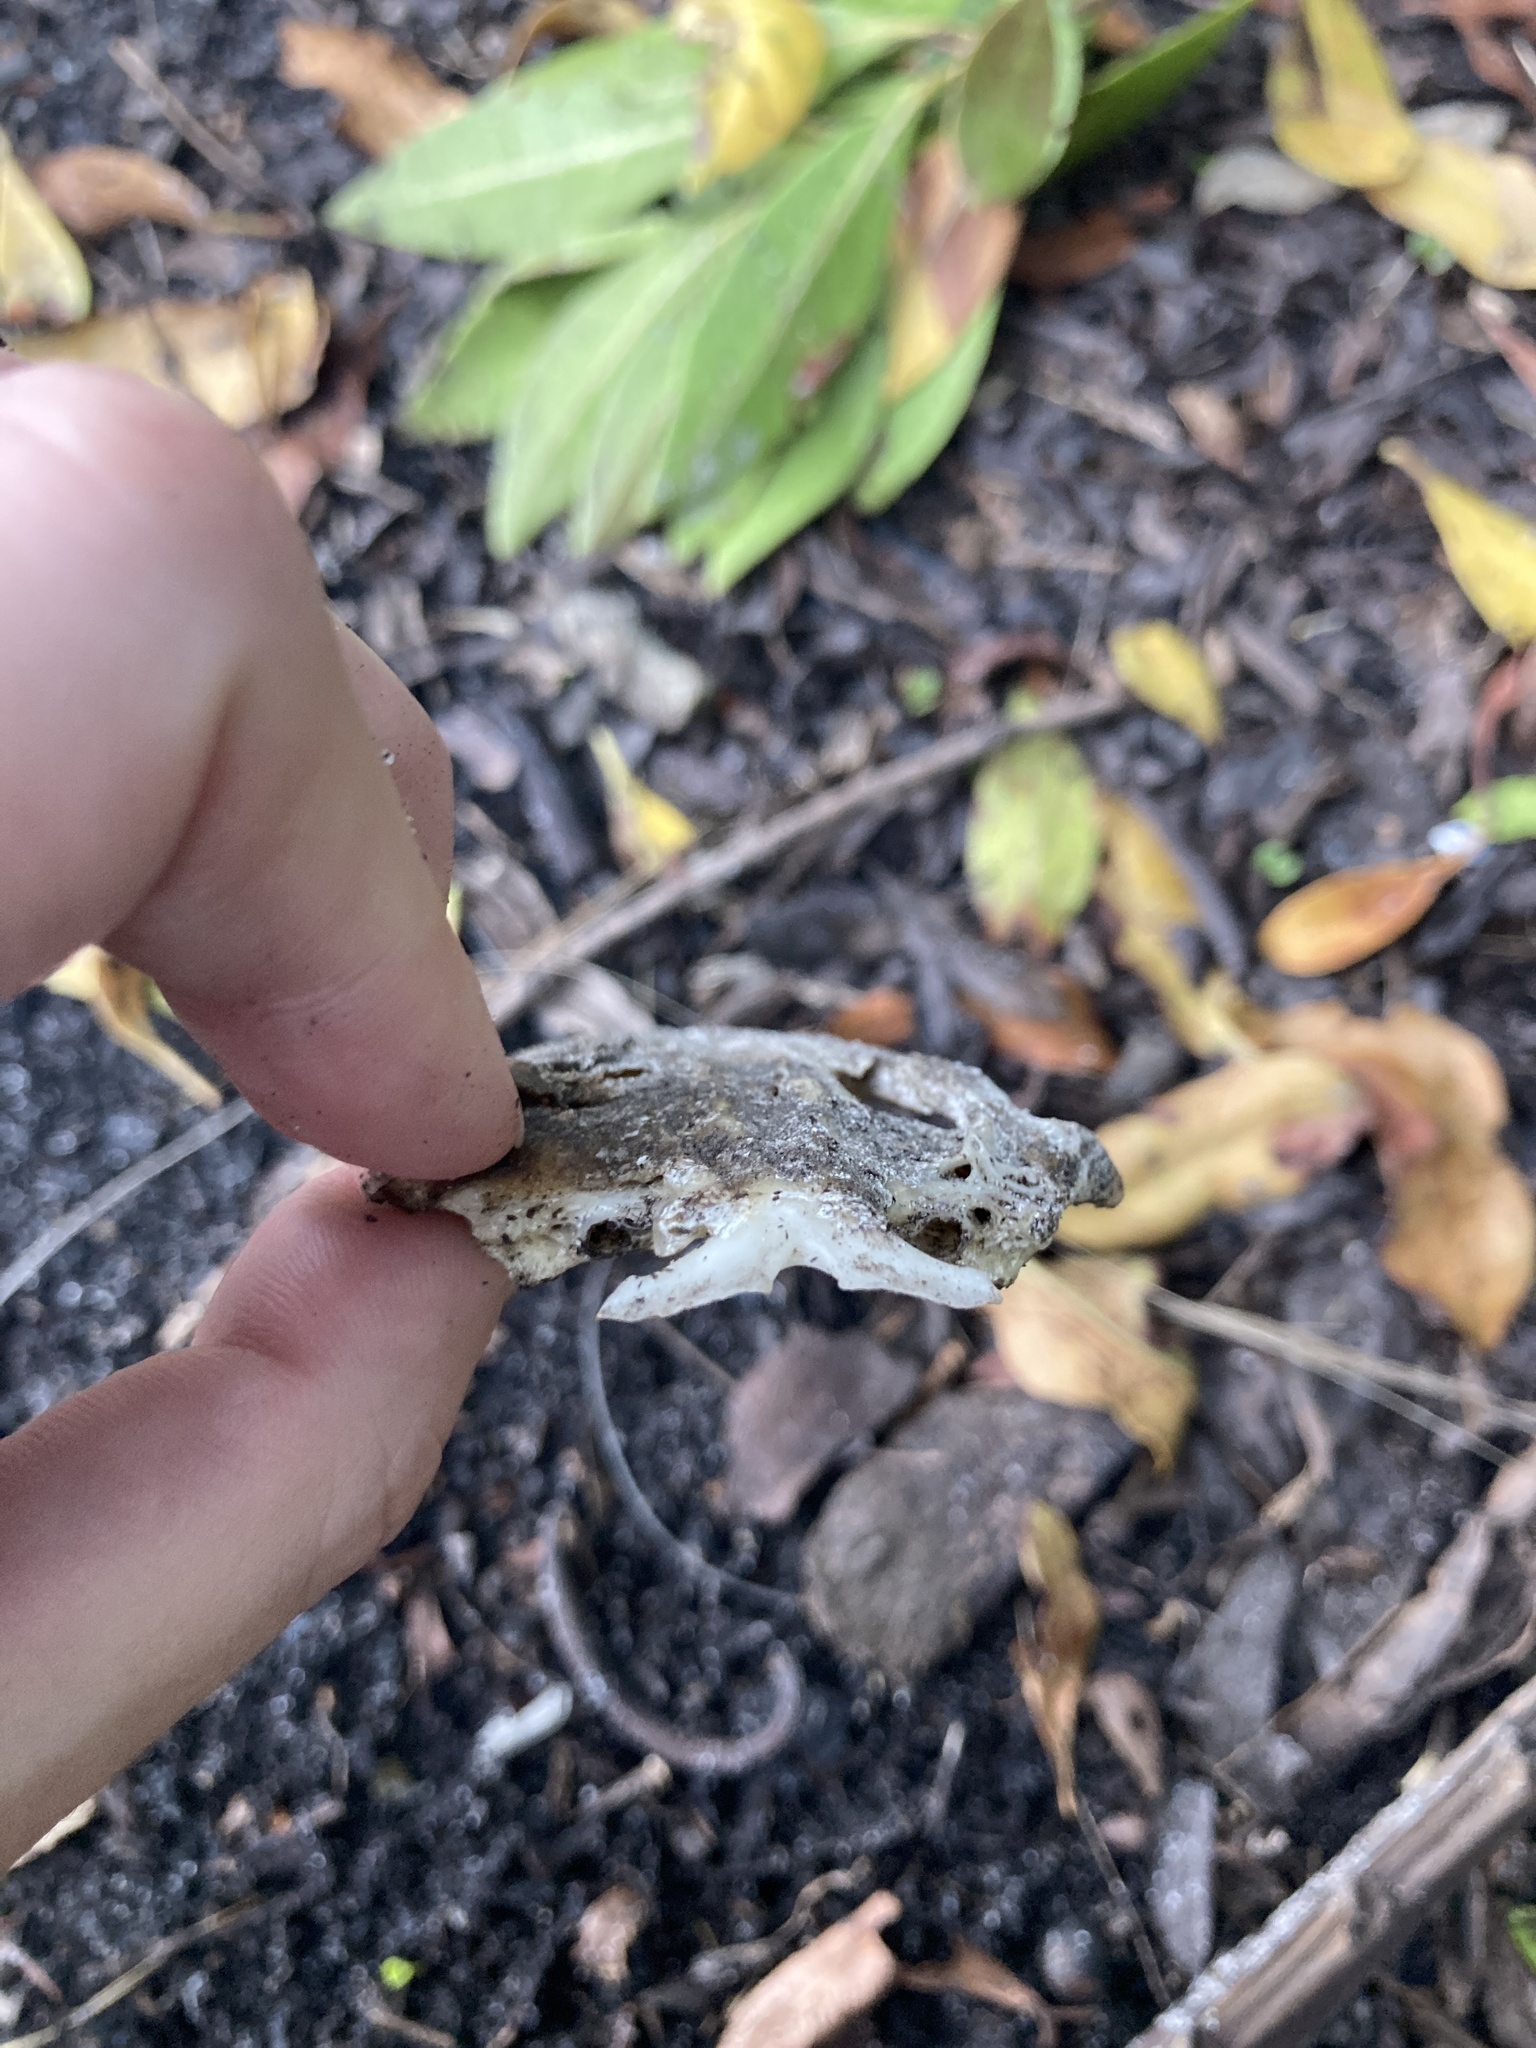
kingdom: Animalia
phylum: Chordata
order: Siluriformes
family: Ariidae
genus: Ariopsis
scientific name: Ariopsis felis
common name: Hardhead catfish
